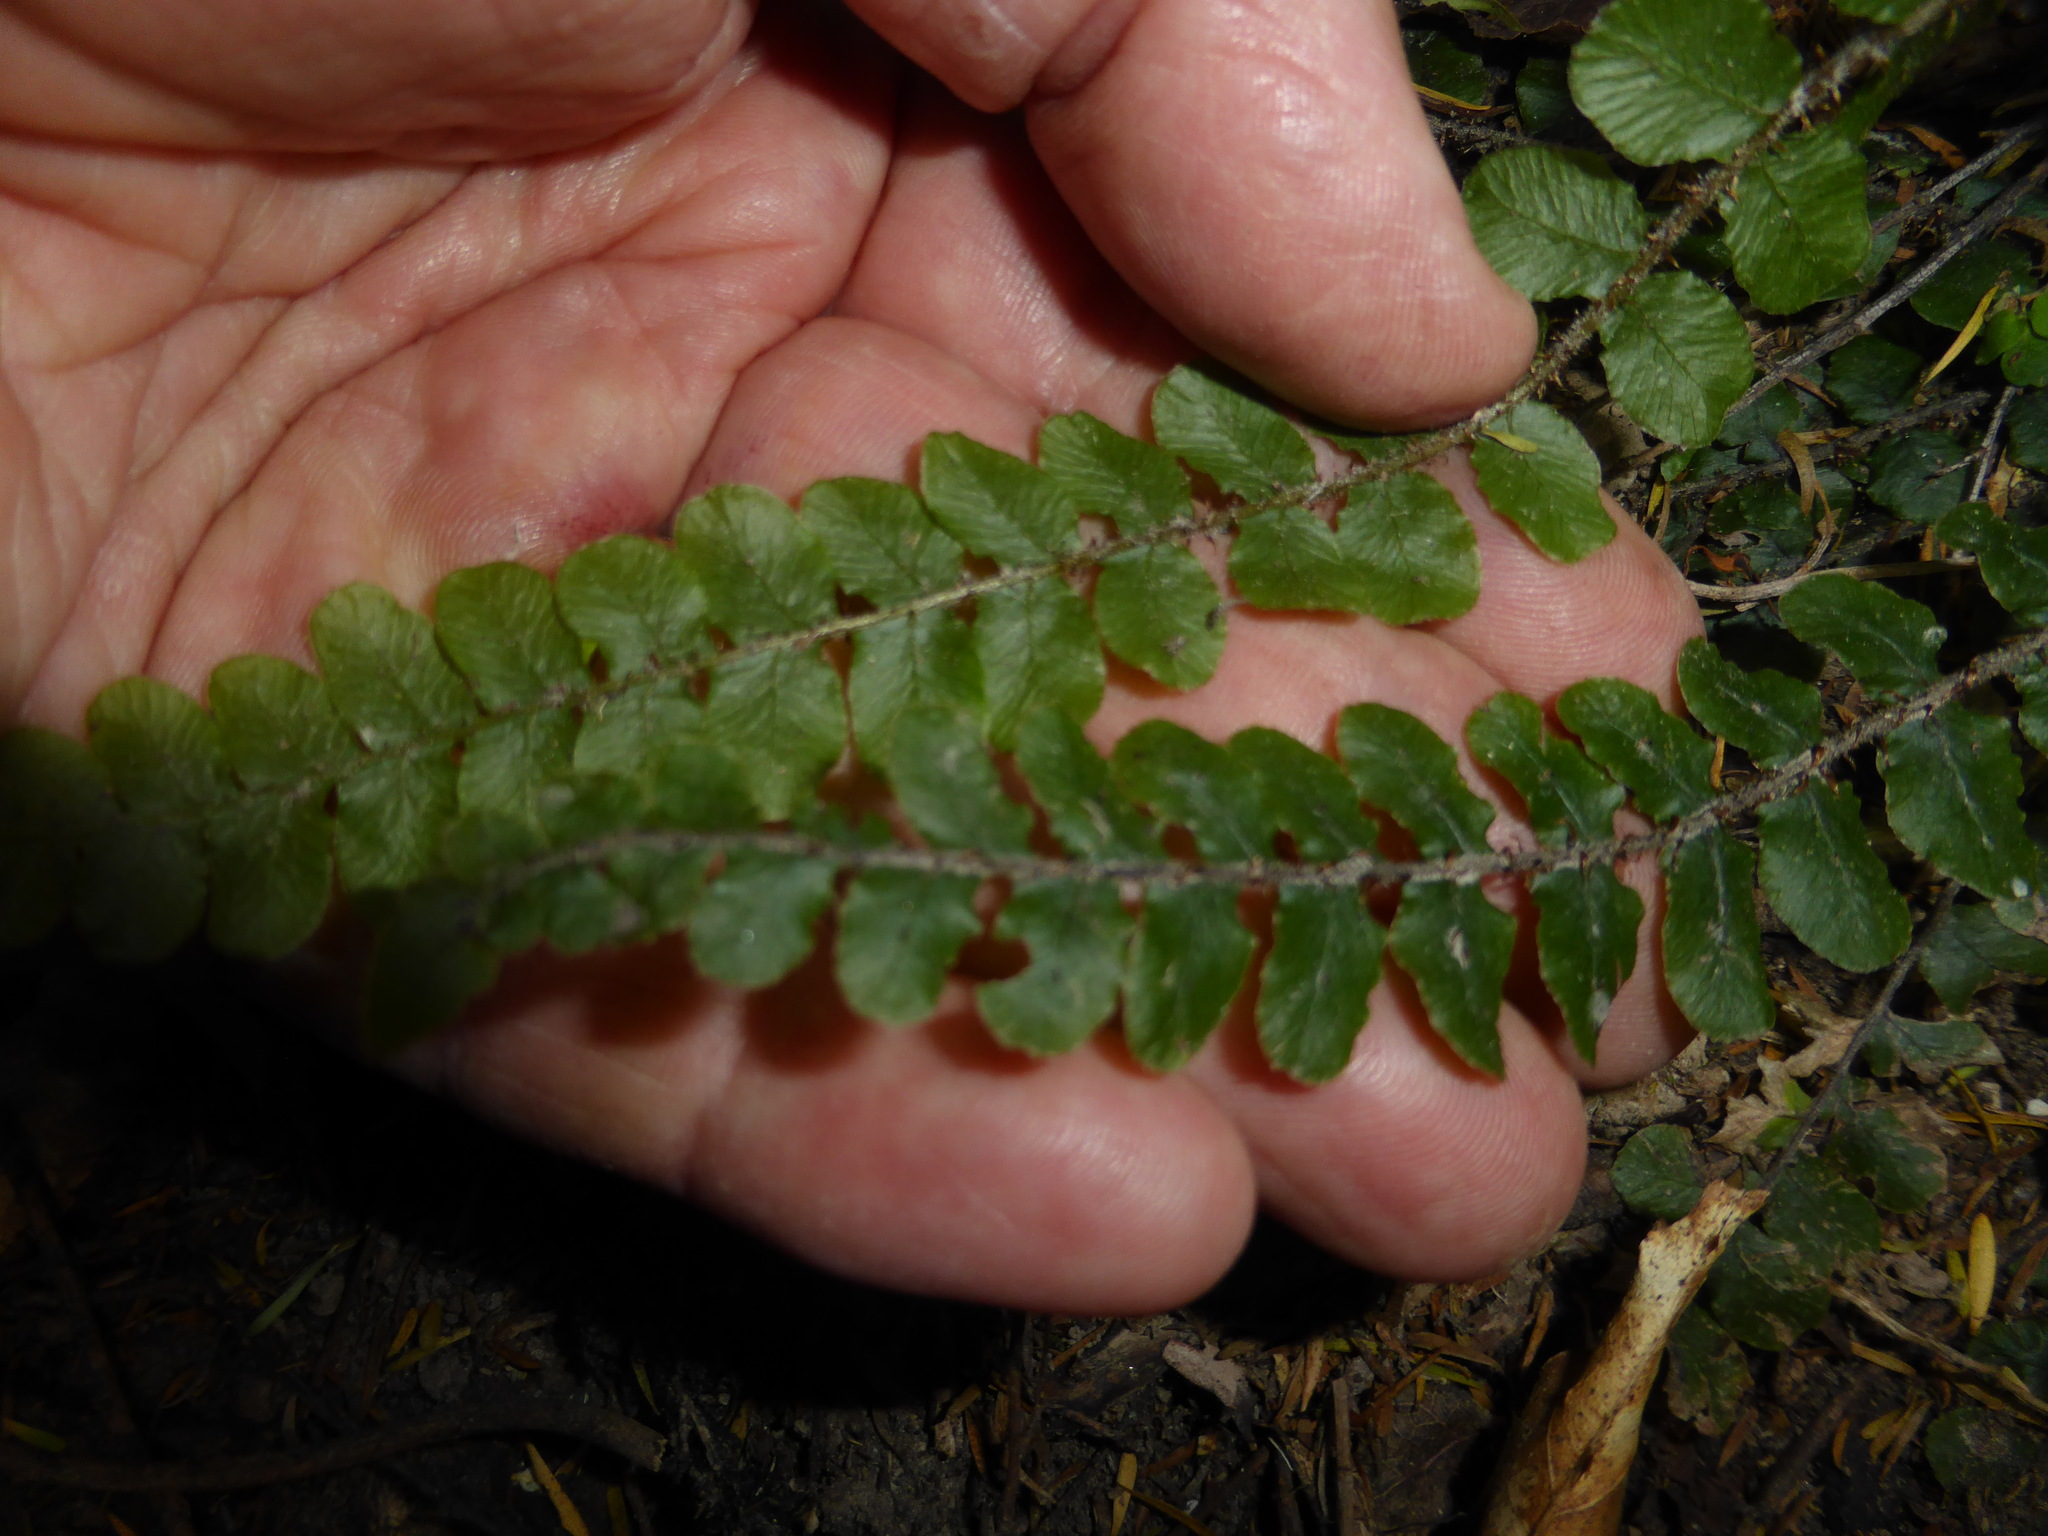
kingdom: Plantae
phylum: Tracheophyta
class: Polypodiopsida
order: Polypodiales
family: Blechnaceae
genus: Cranfillia
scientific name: Cranfillia fluviatilis
